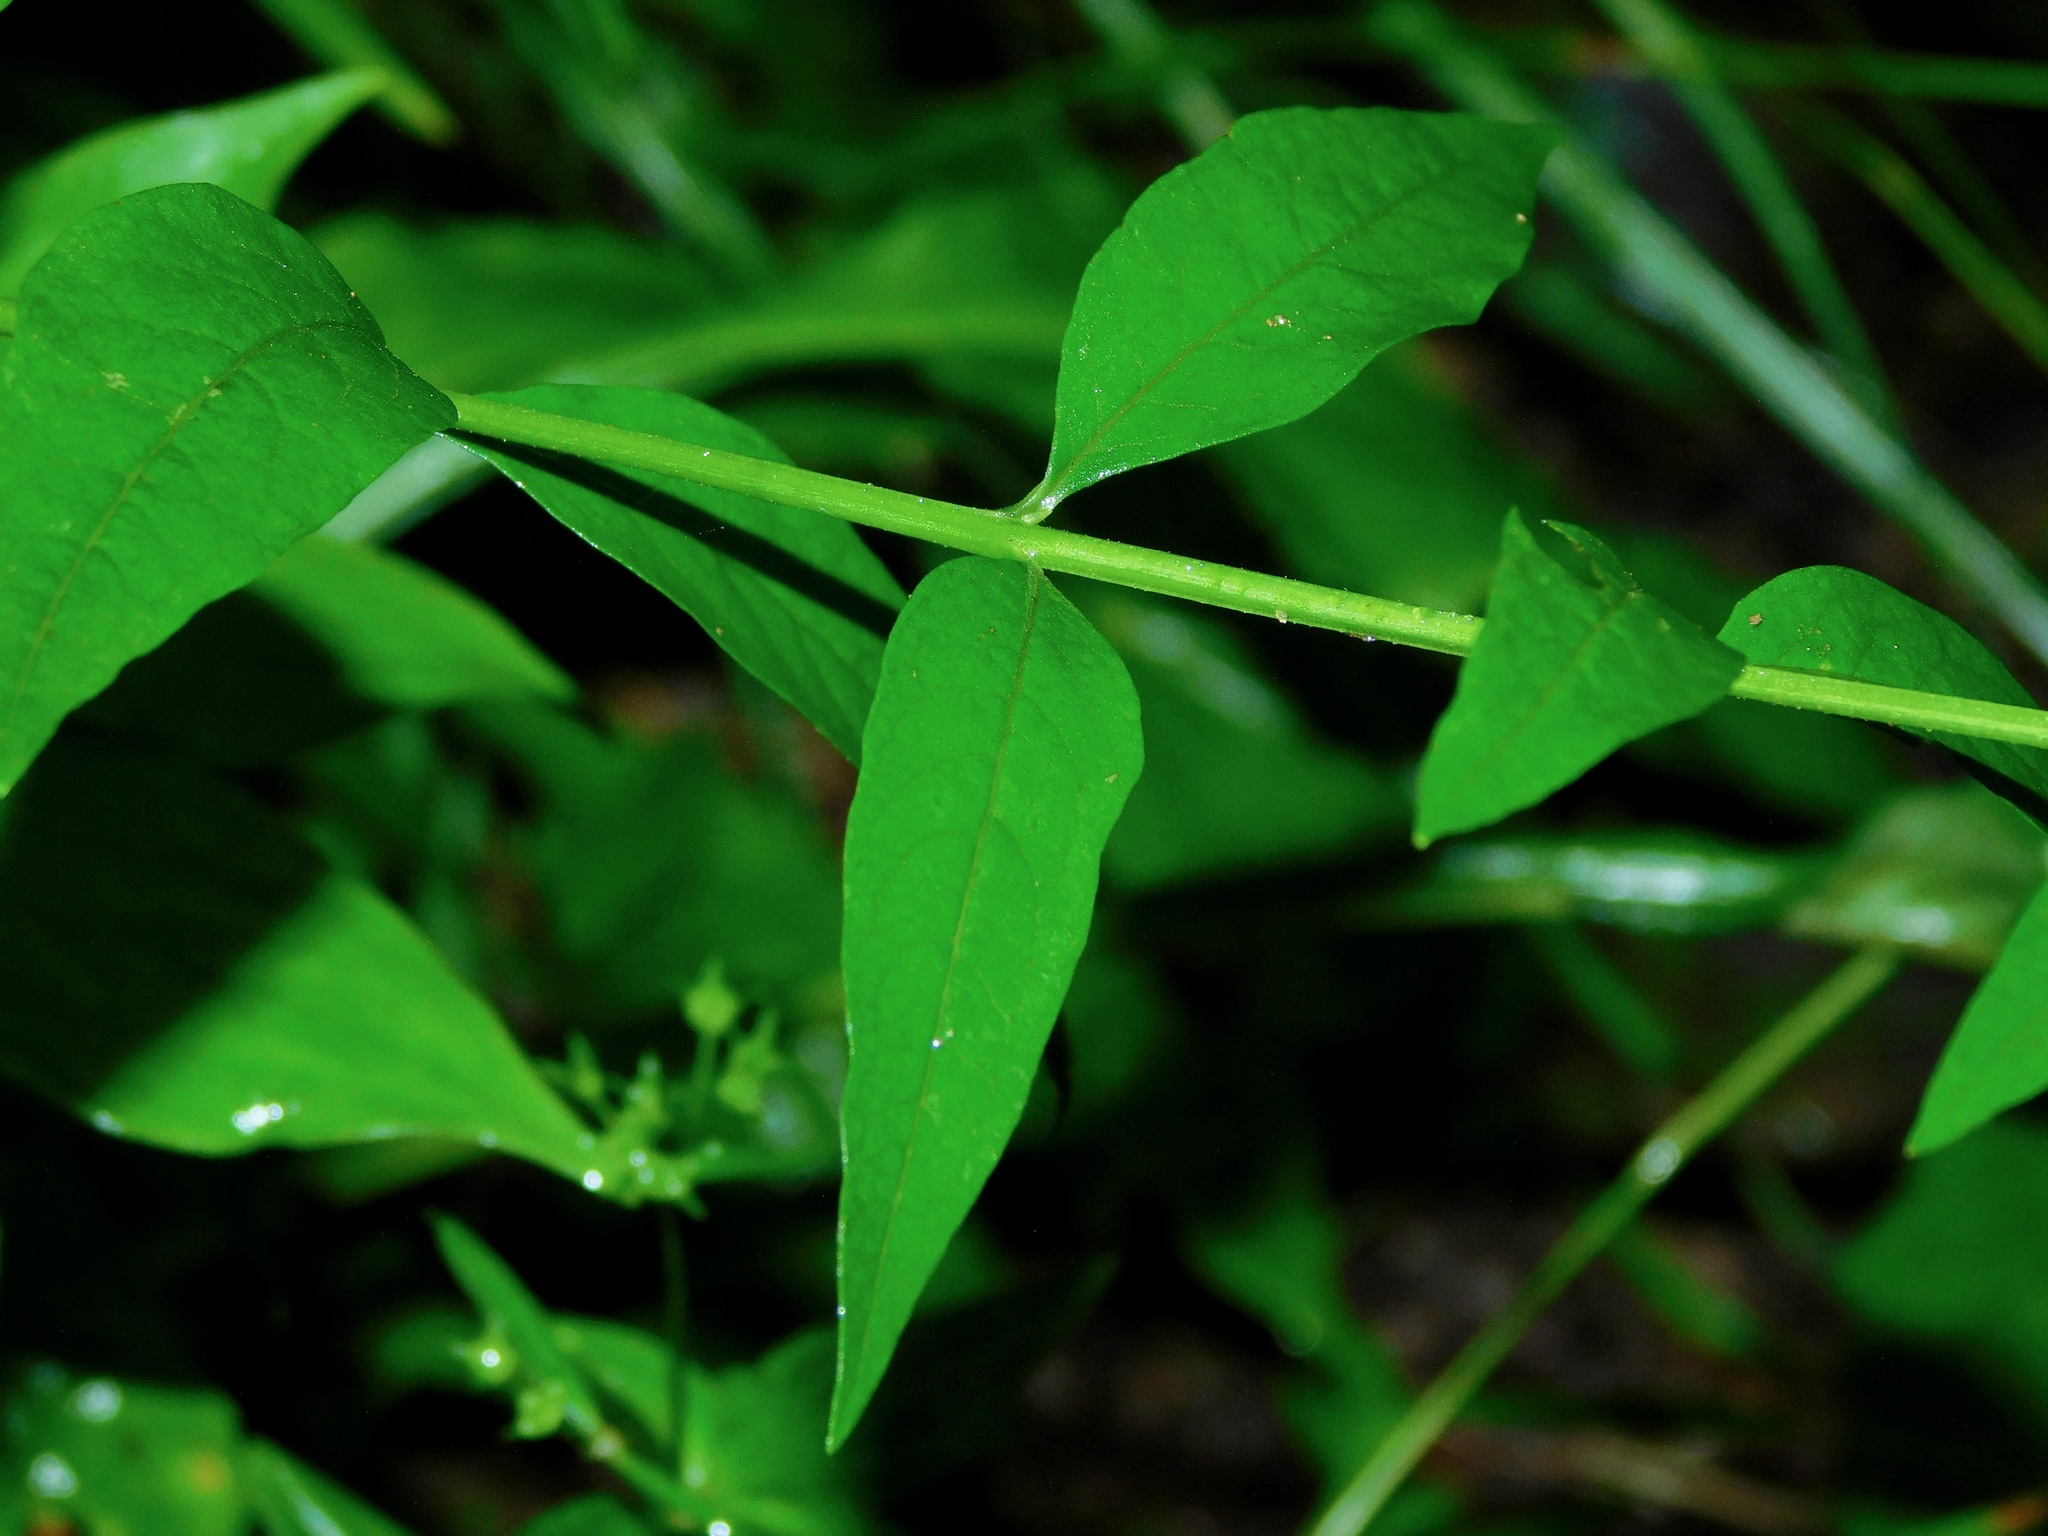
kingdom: Plantae
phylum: Tracheophyta
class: Magnoliopsida
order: Lamiales
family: Orobanchaceae
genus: Aureolaria
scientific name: Aureolaria levigata
